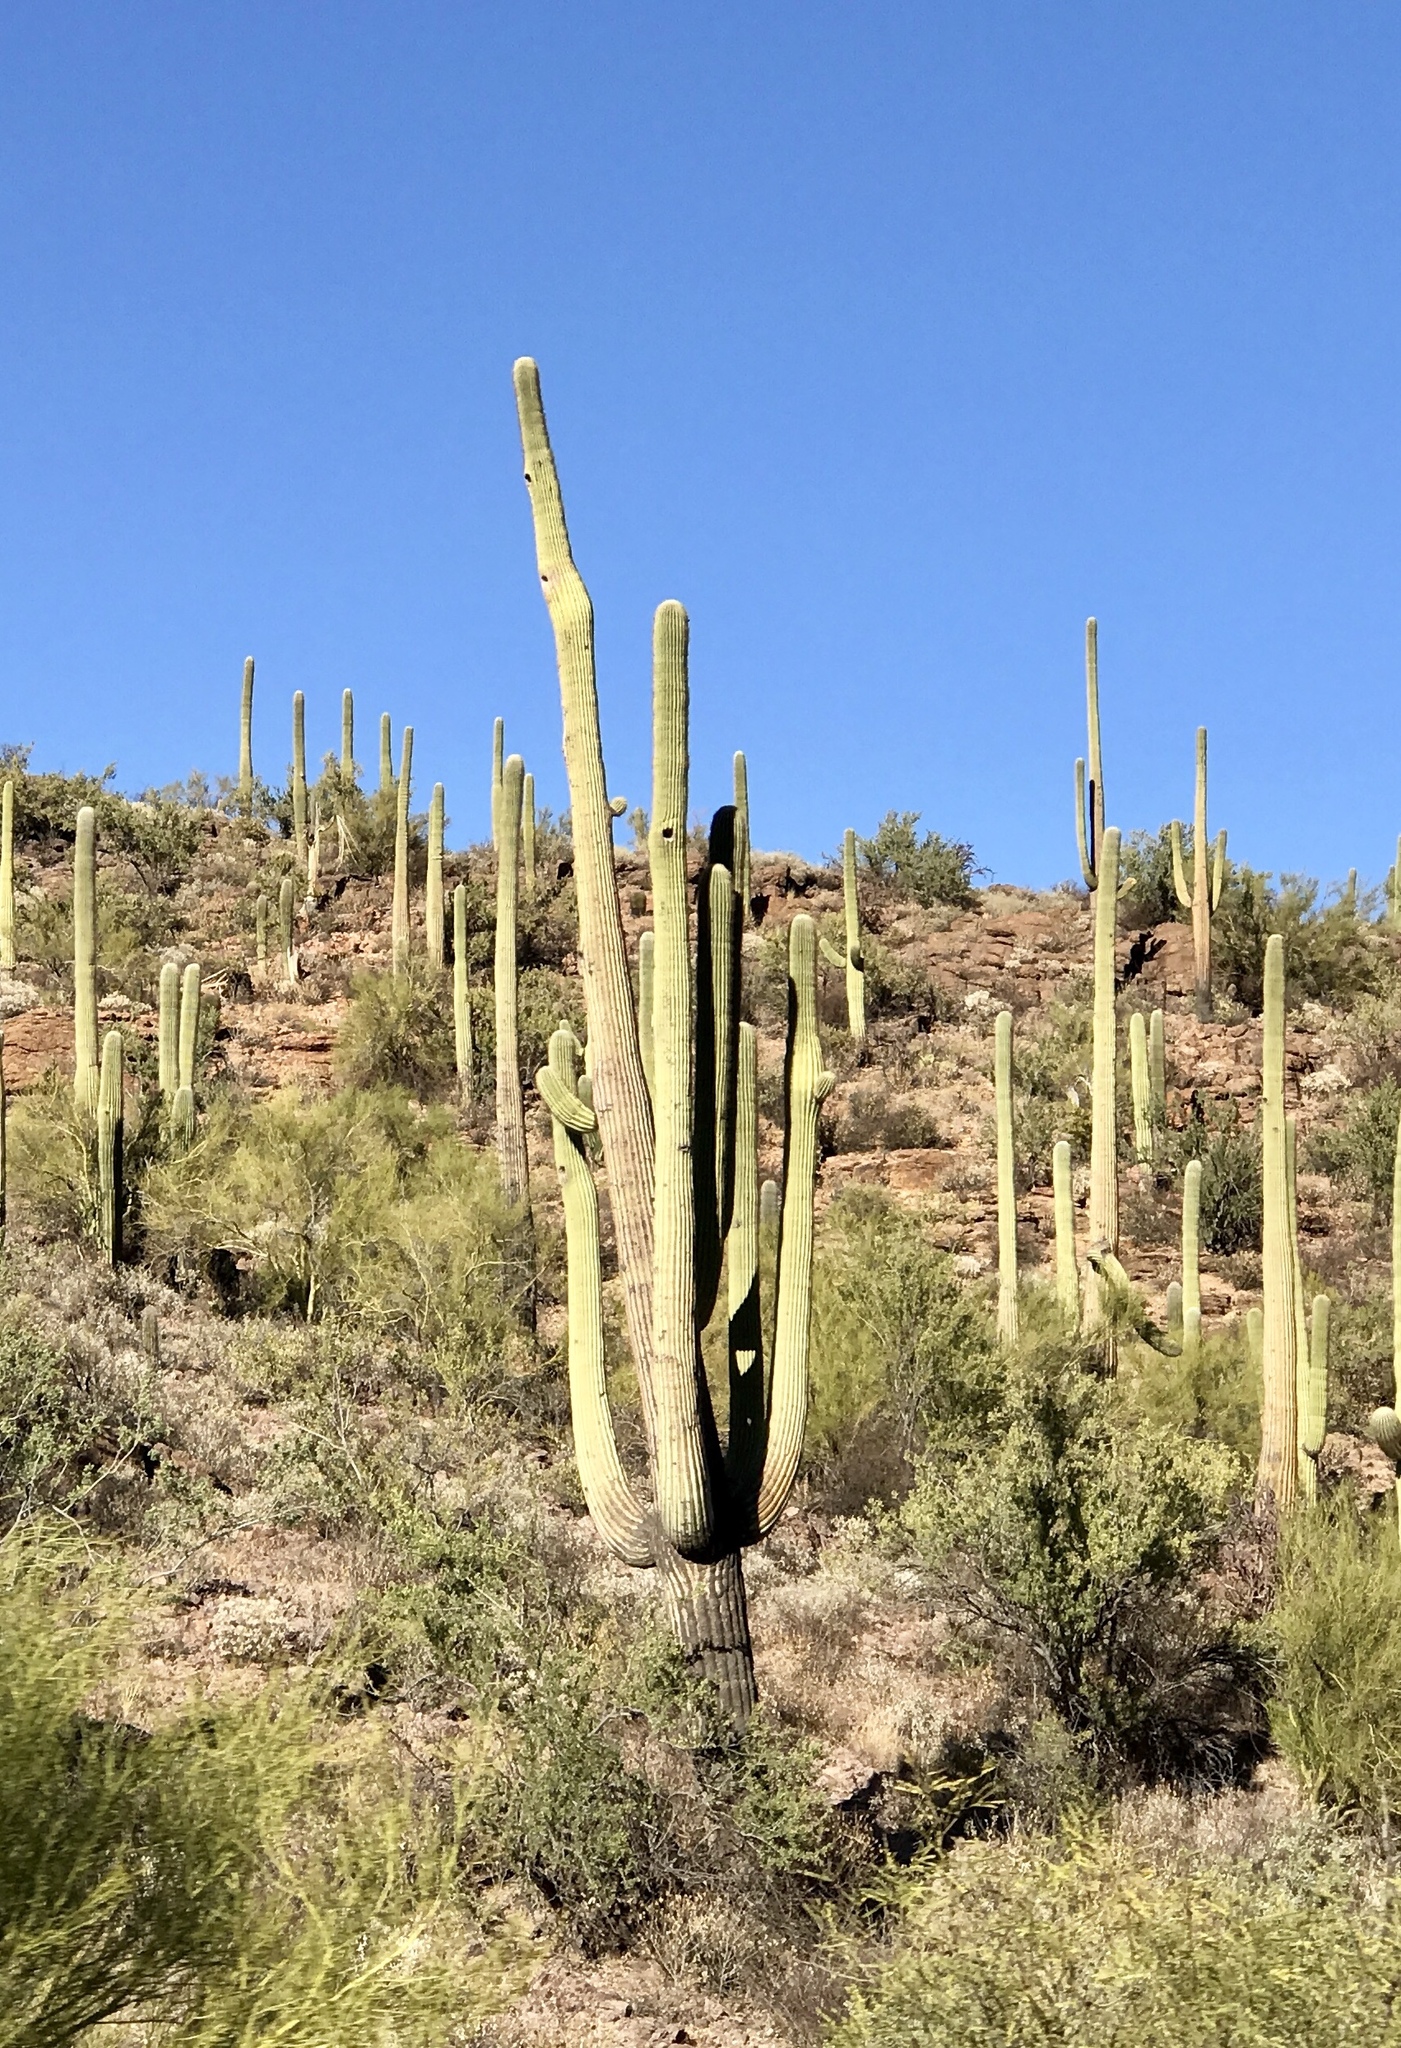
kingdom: Plantae
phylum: Tracheophyta
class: Magnoliopsida
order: Caryophyllales
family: Cactaceae
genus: Carnegiea
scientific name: Carnegiea gigantea
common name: Saguaro
